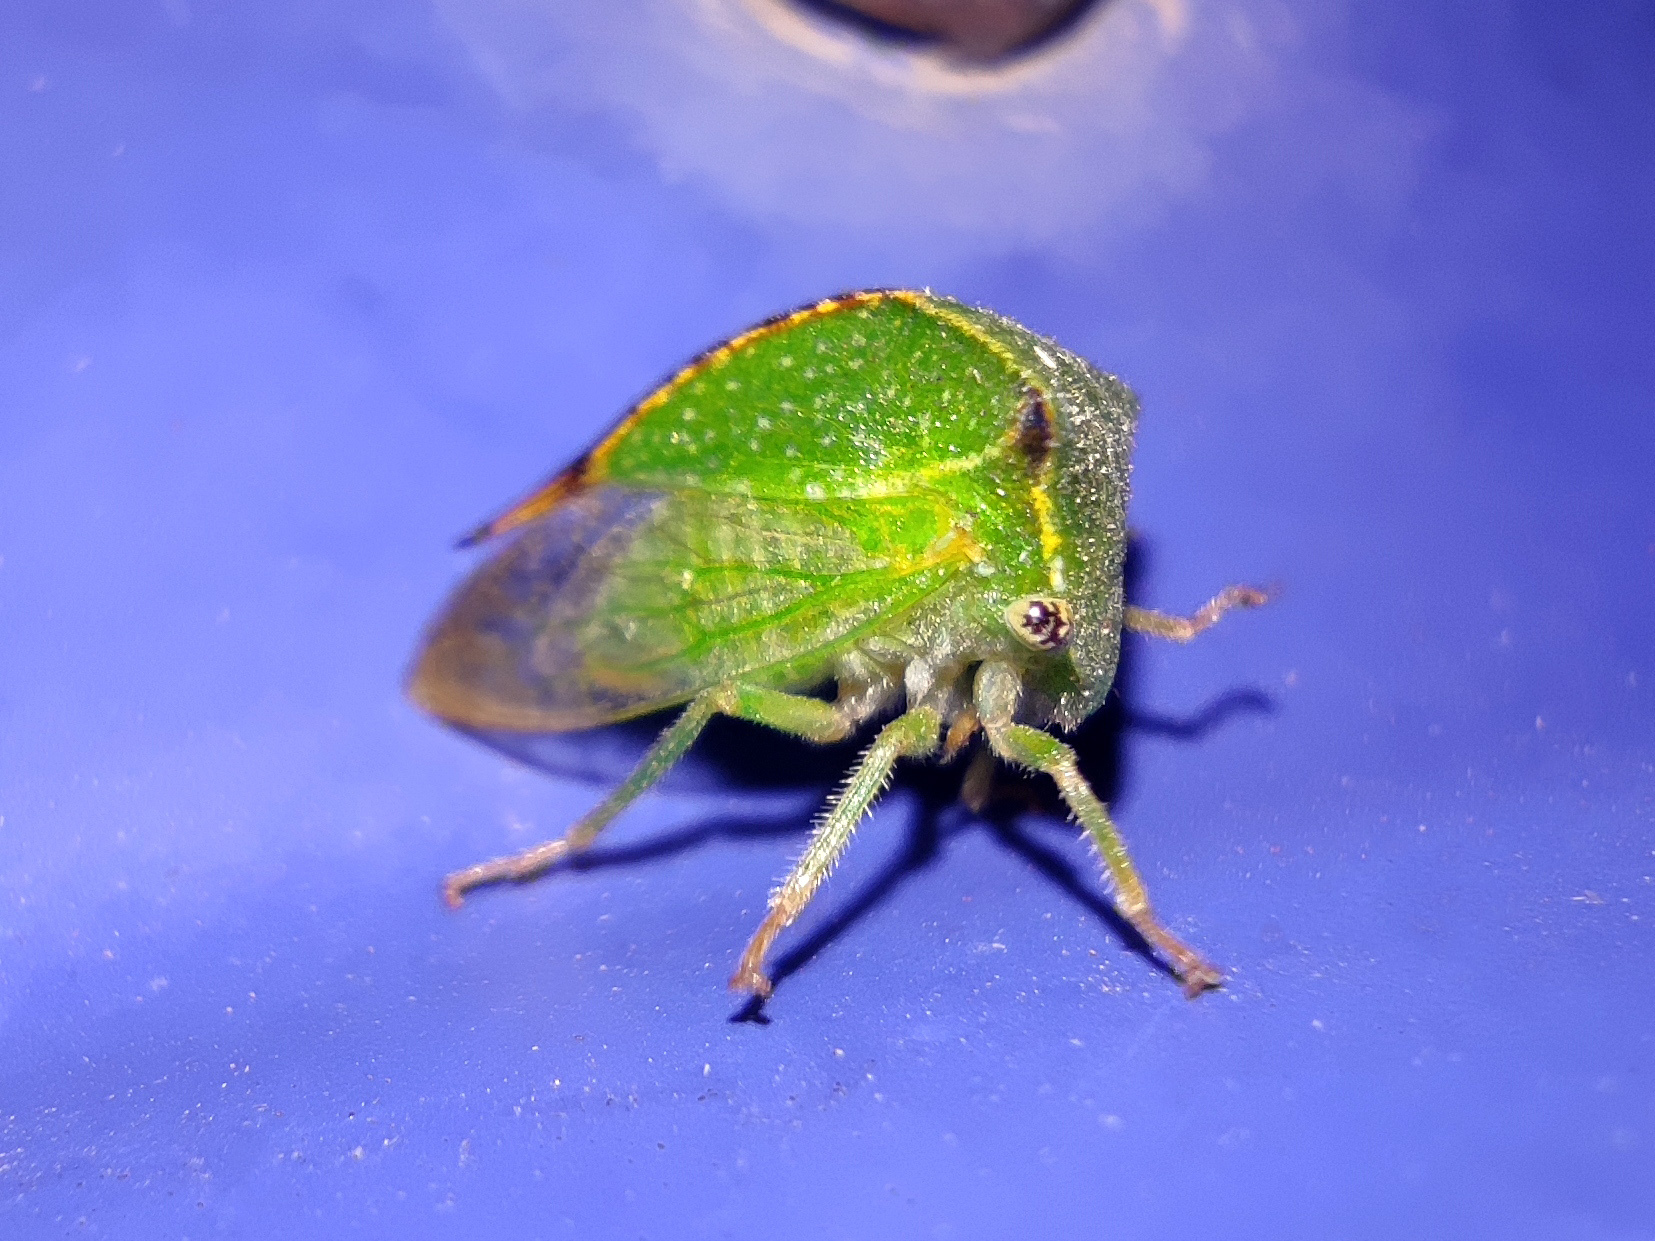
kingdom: Animalia
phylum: Arthropoda
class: Insecta
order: Hemiptera
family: Membracidae
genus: Stictocephala
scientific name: Stictocephala bisonia
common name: American buffalo treehopper
